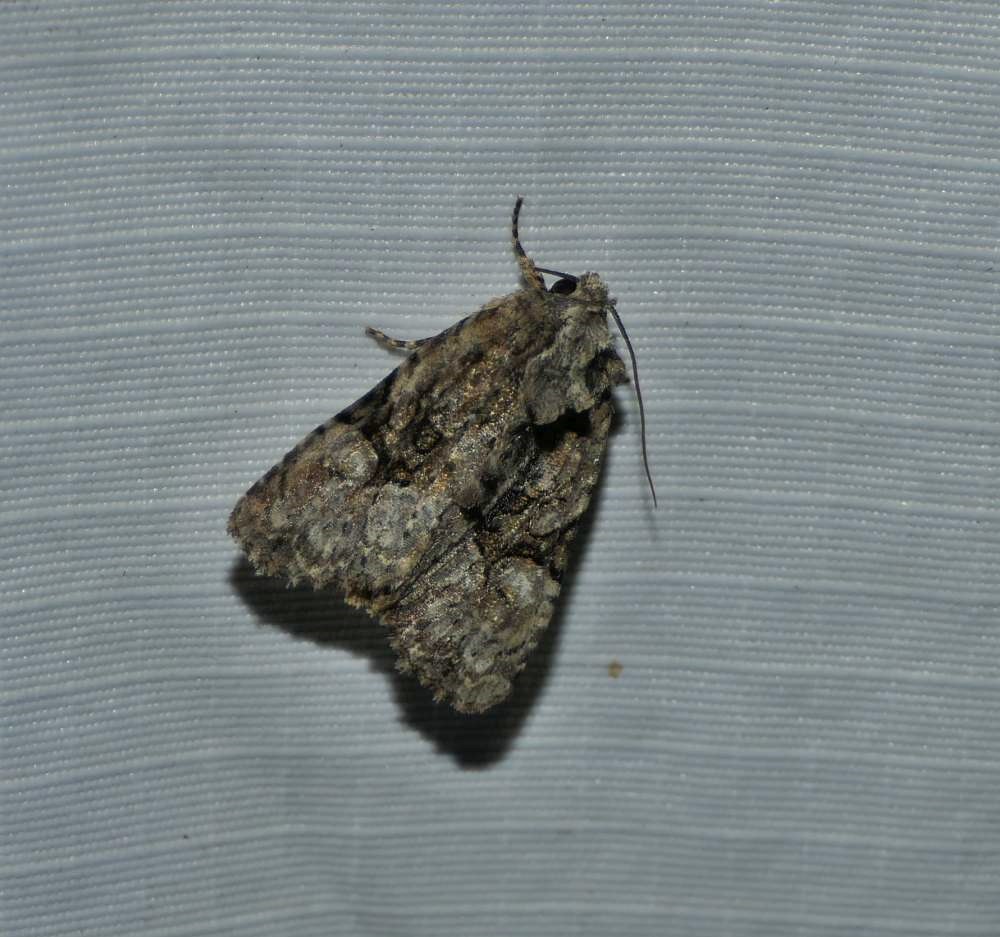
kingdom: Animalia
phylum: Arthropoda
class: Insecta
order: Lepidoptera
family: Noctuidae
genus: Oligia
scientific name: Oligia modica
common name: Black-banded brocade
